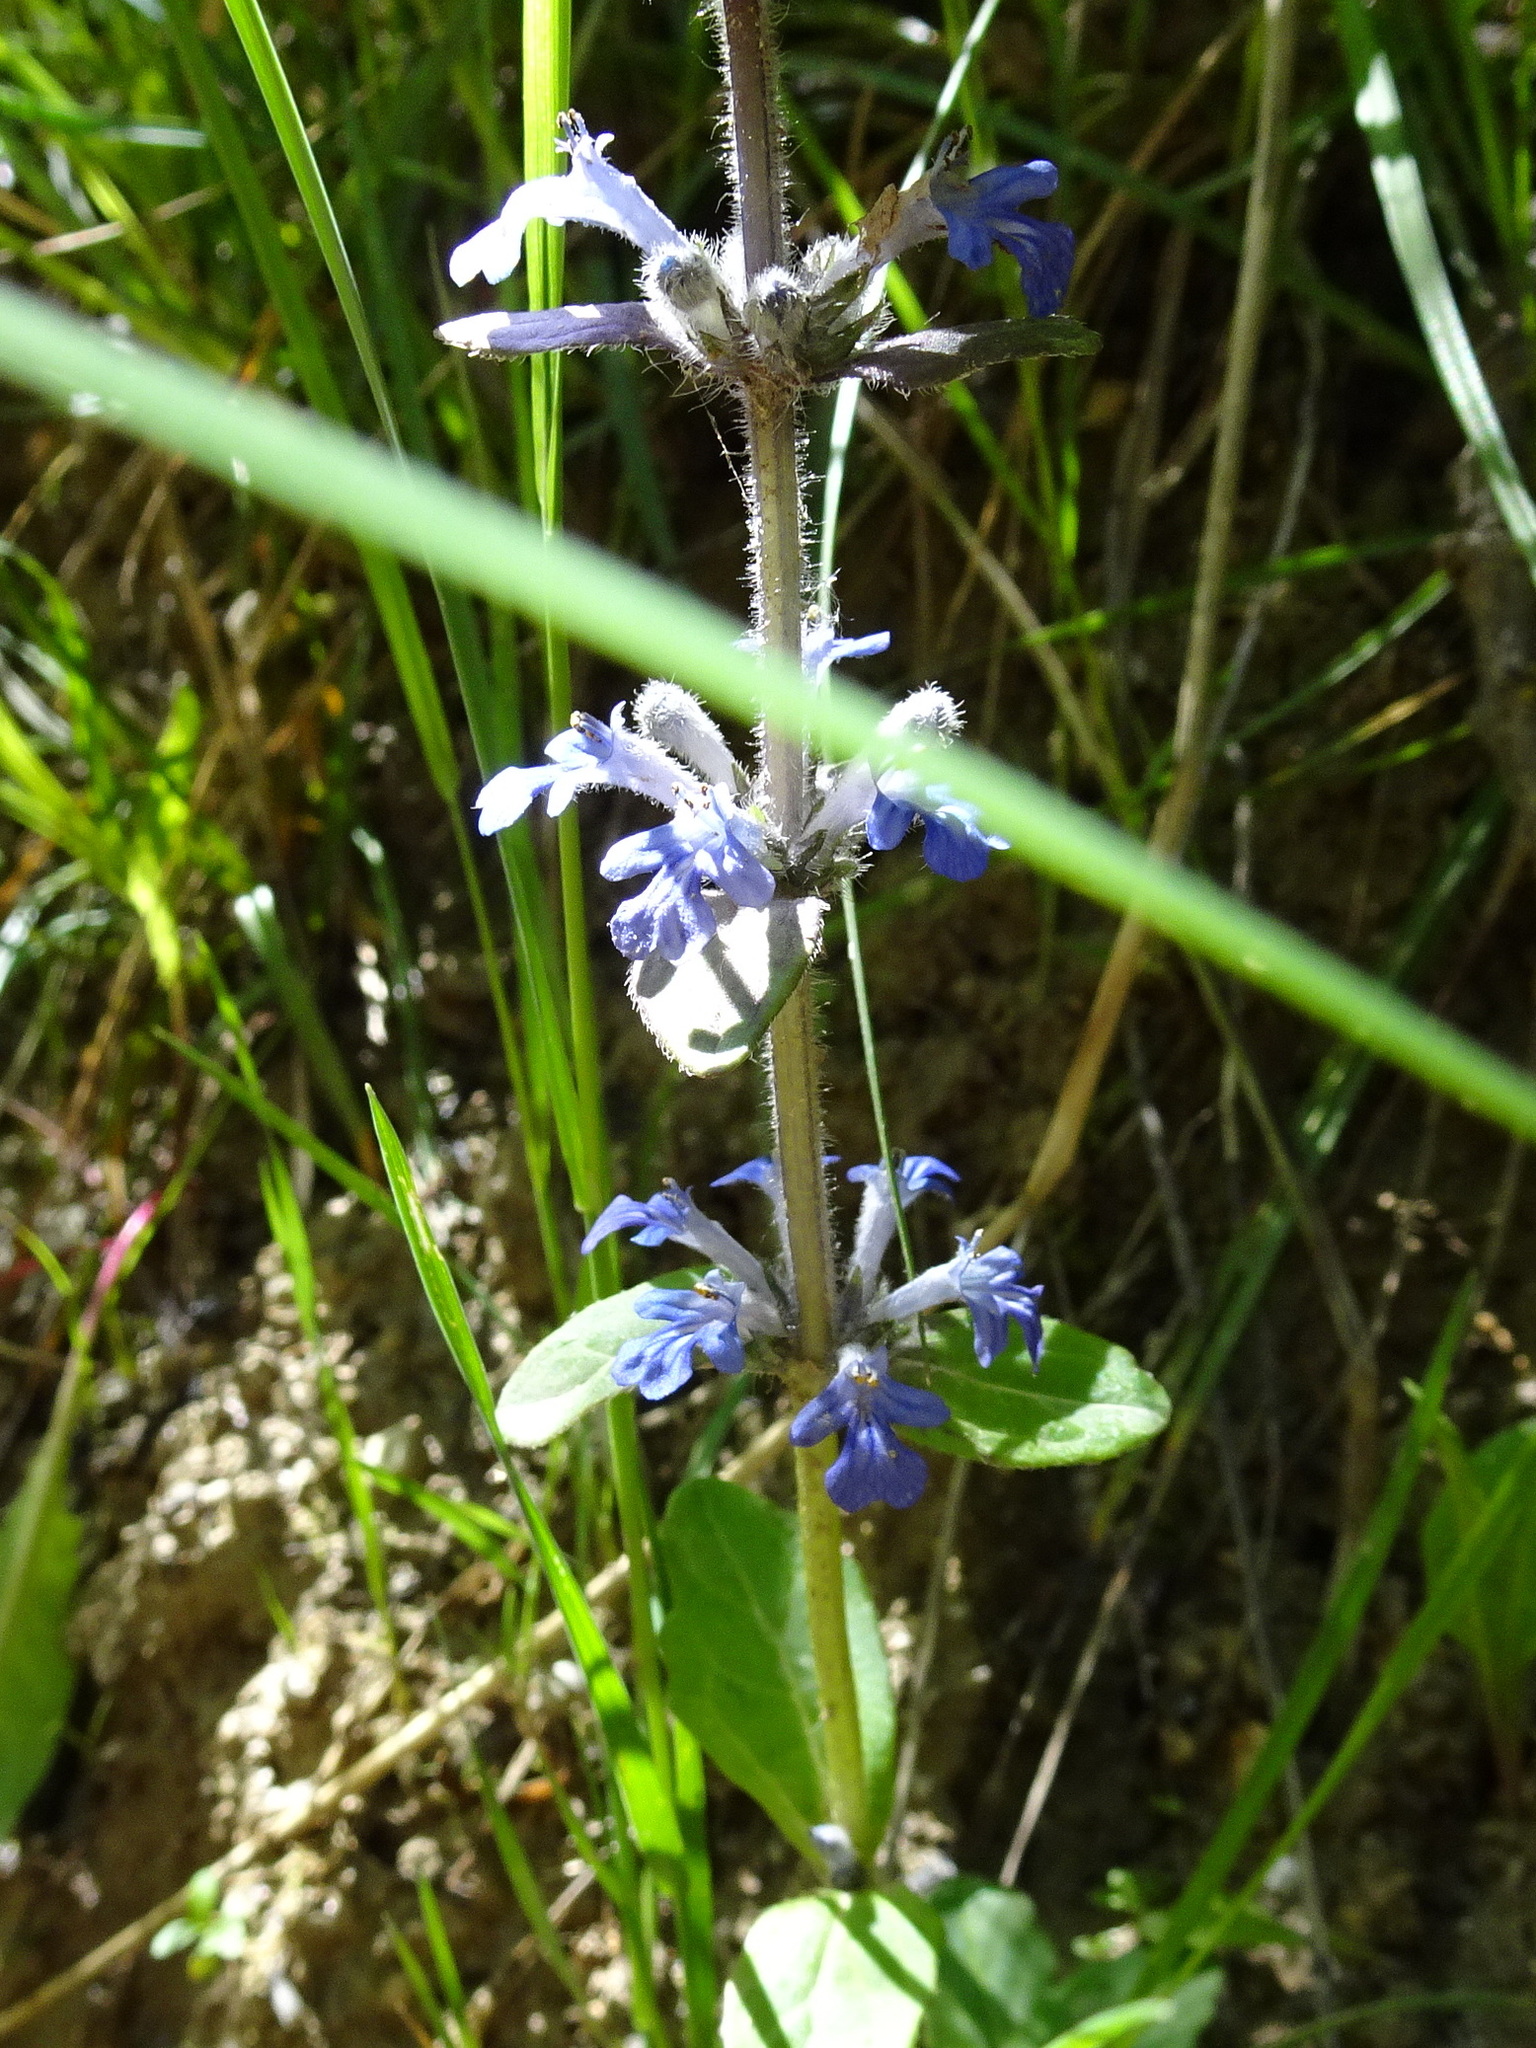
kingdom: Plantae
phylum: Tracheophyta
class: Magnoliopsida
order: Lamiales
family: Lamiaceae
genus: Ajuga
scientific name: Ajuga reptans
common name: Bugle
